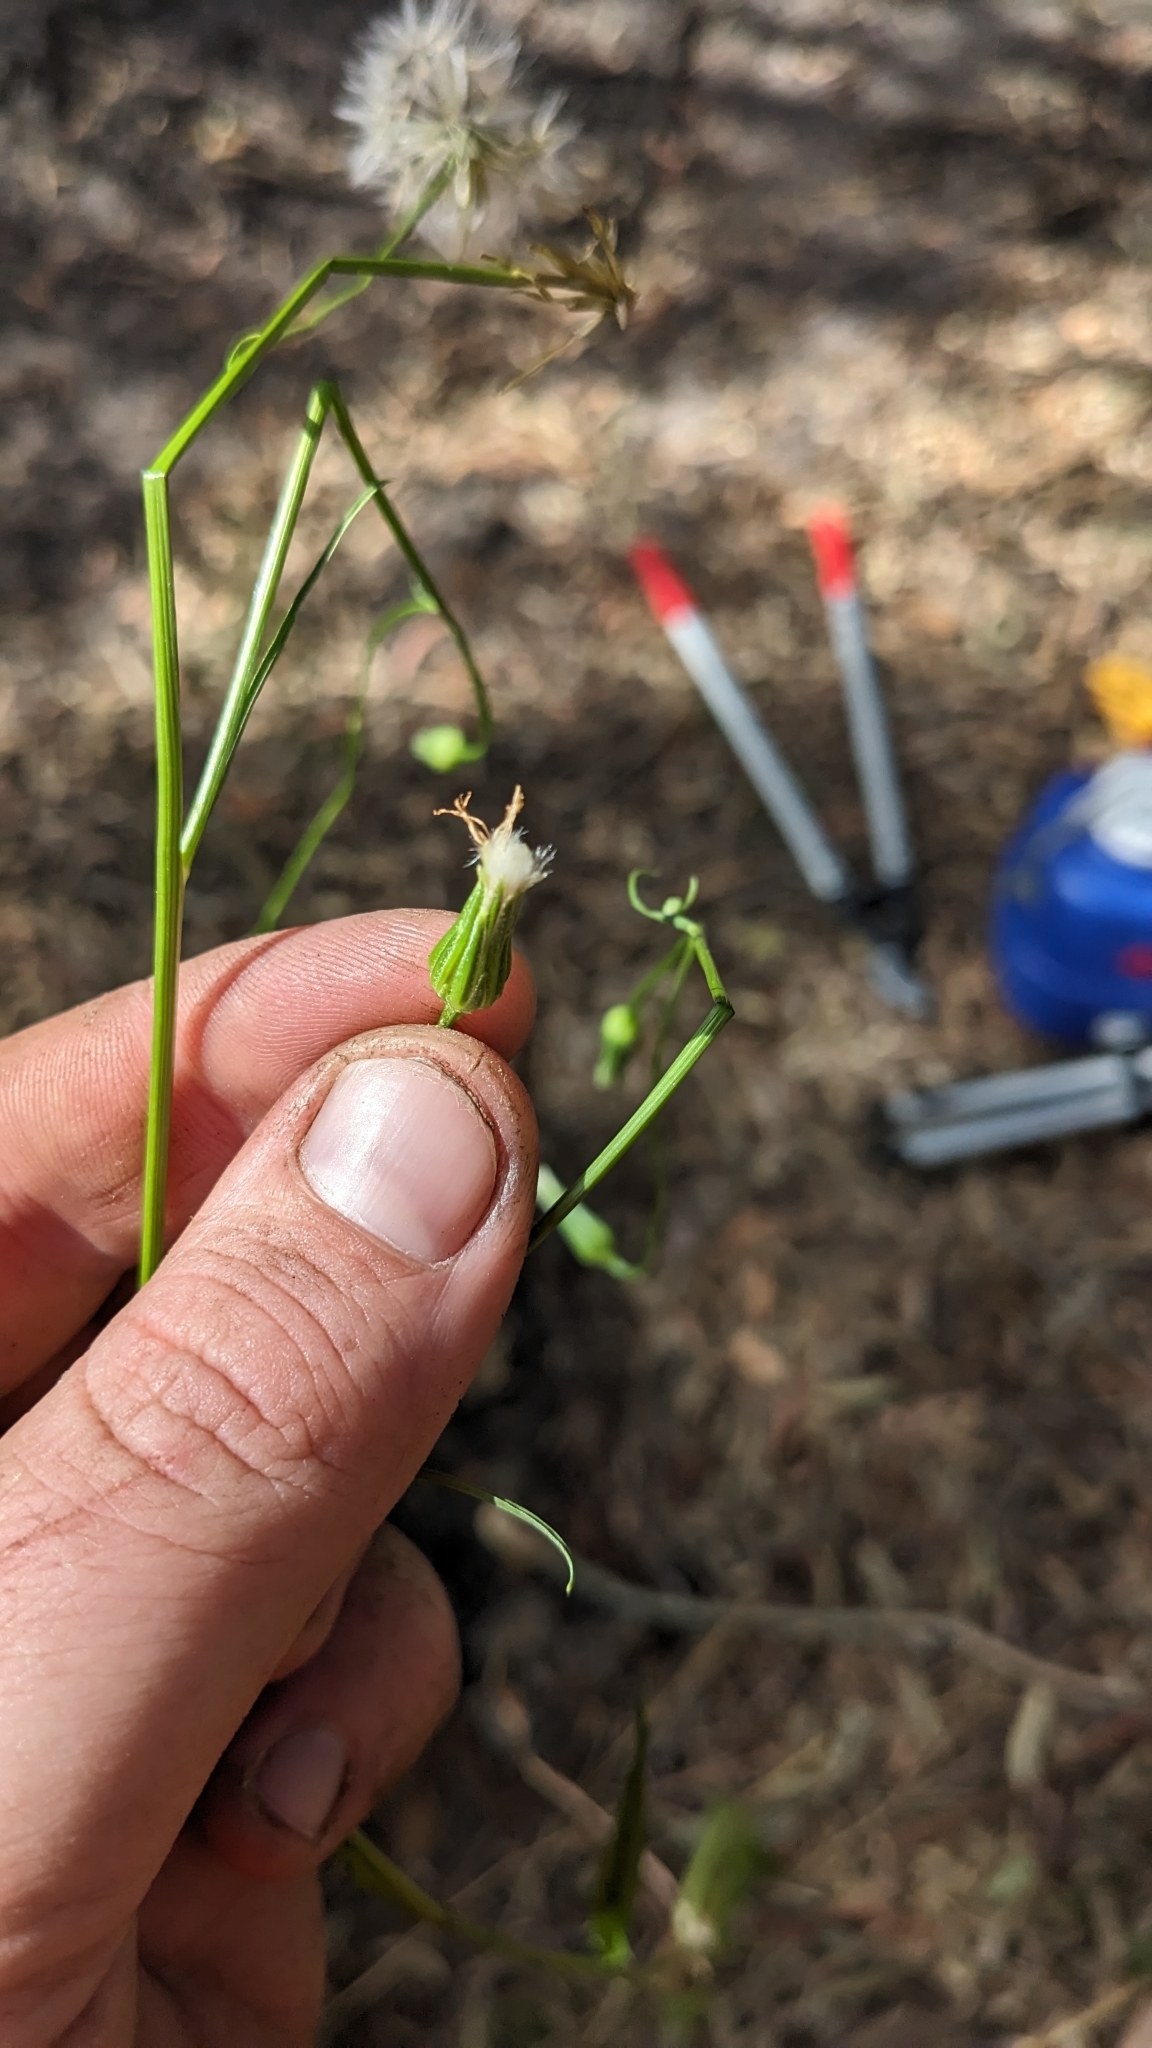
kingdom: Plantae
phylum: Tracheophyta
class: Magnoliopsida
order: Asterales
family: Asteraceae
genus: Hypochaeris
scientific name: Hypochaeris albiflora
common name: White flatweed
